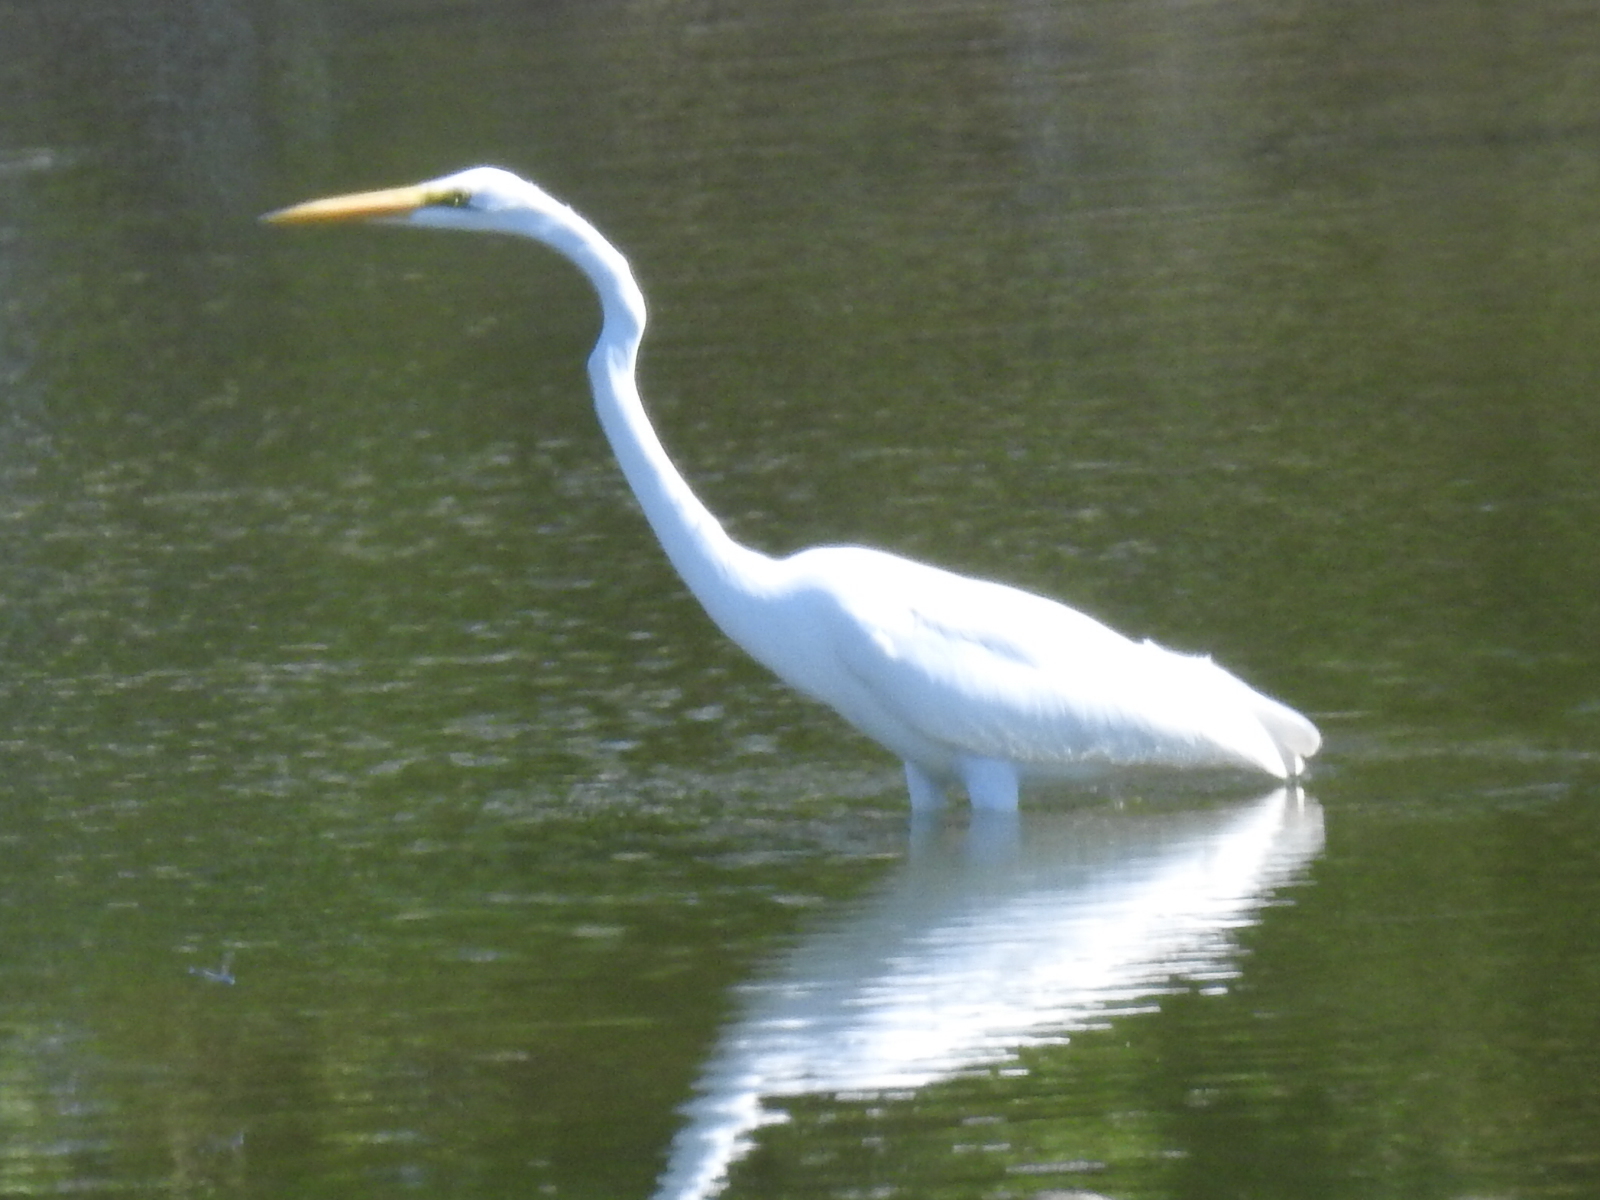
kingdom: Animalia
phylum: Chordata
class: Aves
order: Pelecaniformes
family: Ardeidae
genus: Ardea
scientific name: Ardea alba
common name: Great egret
